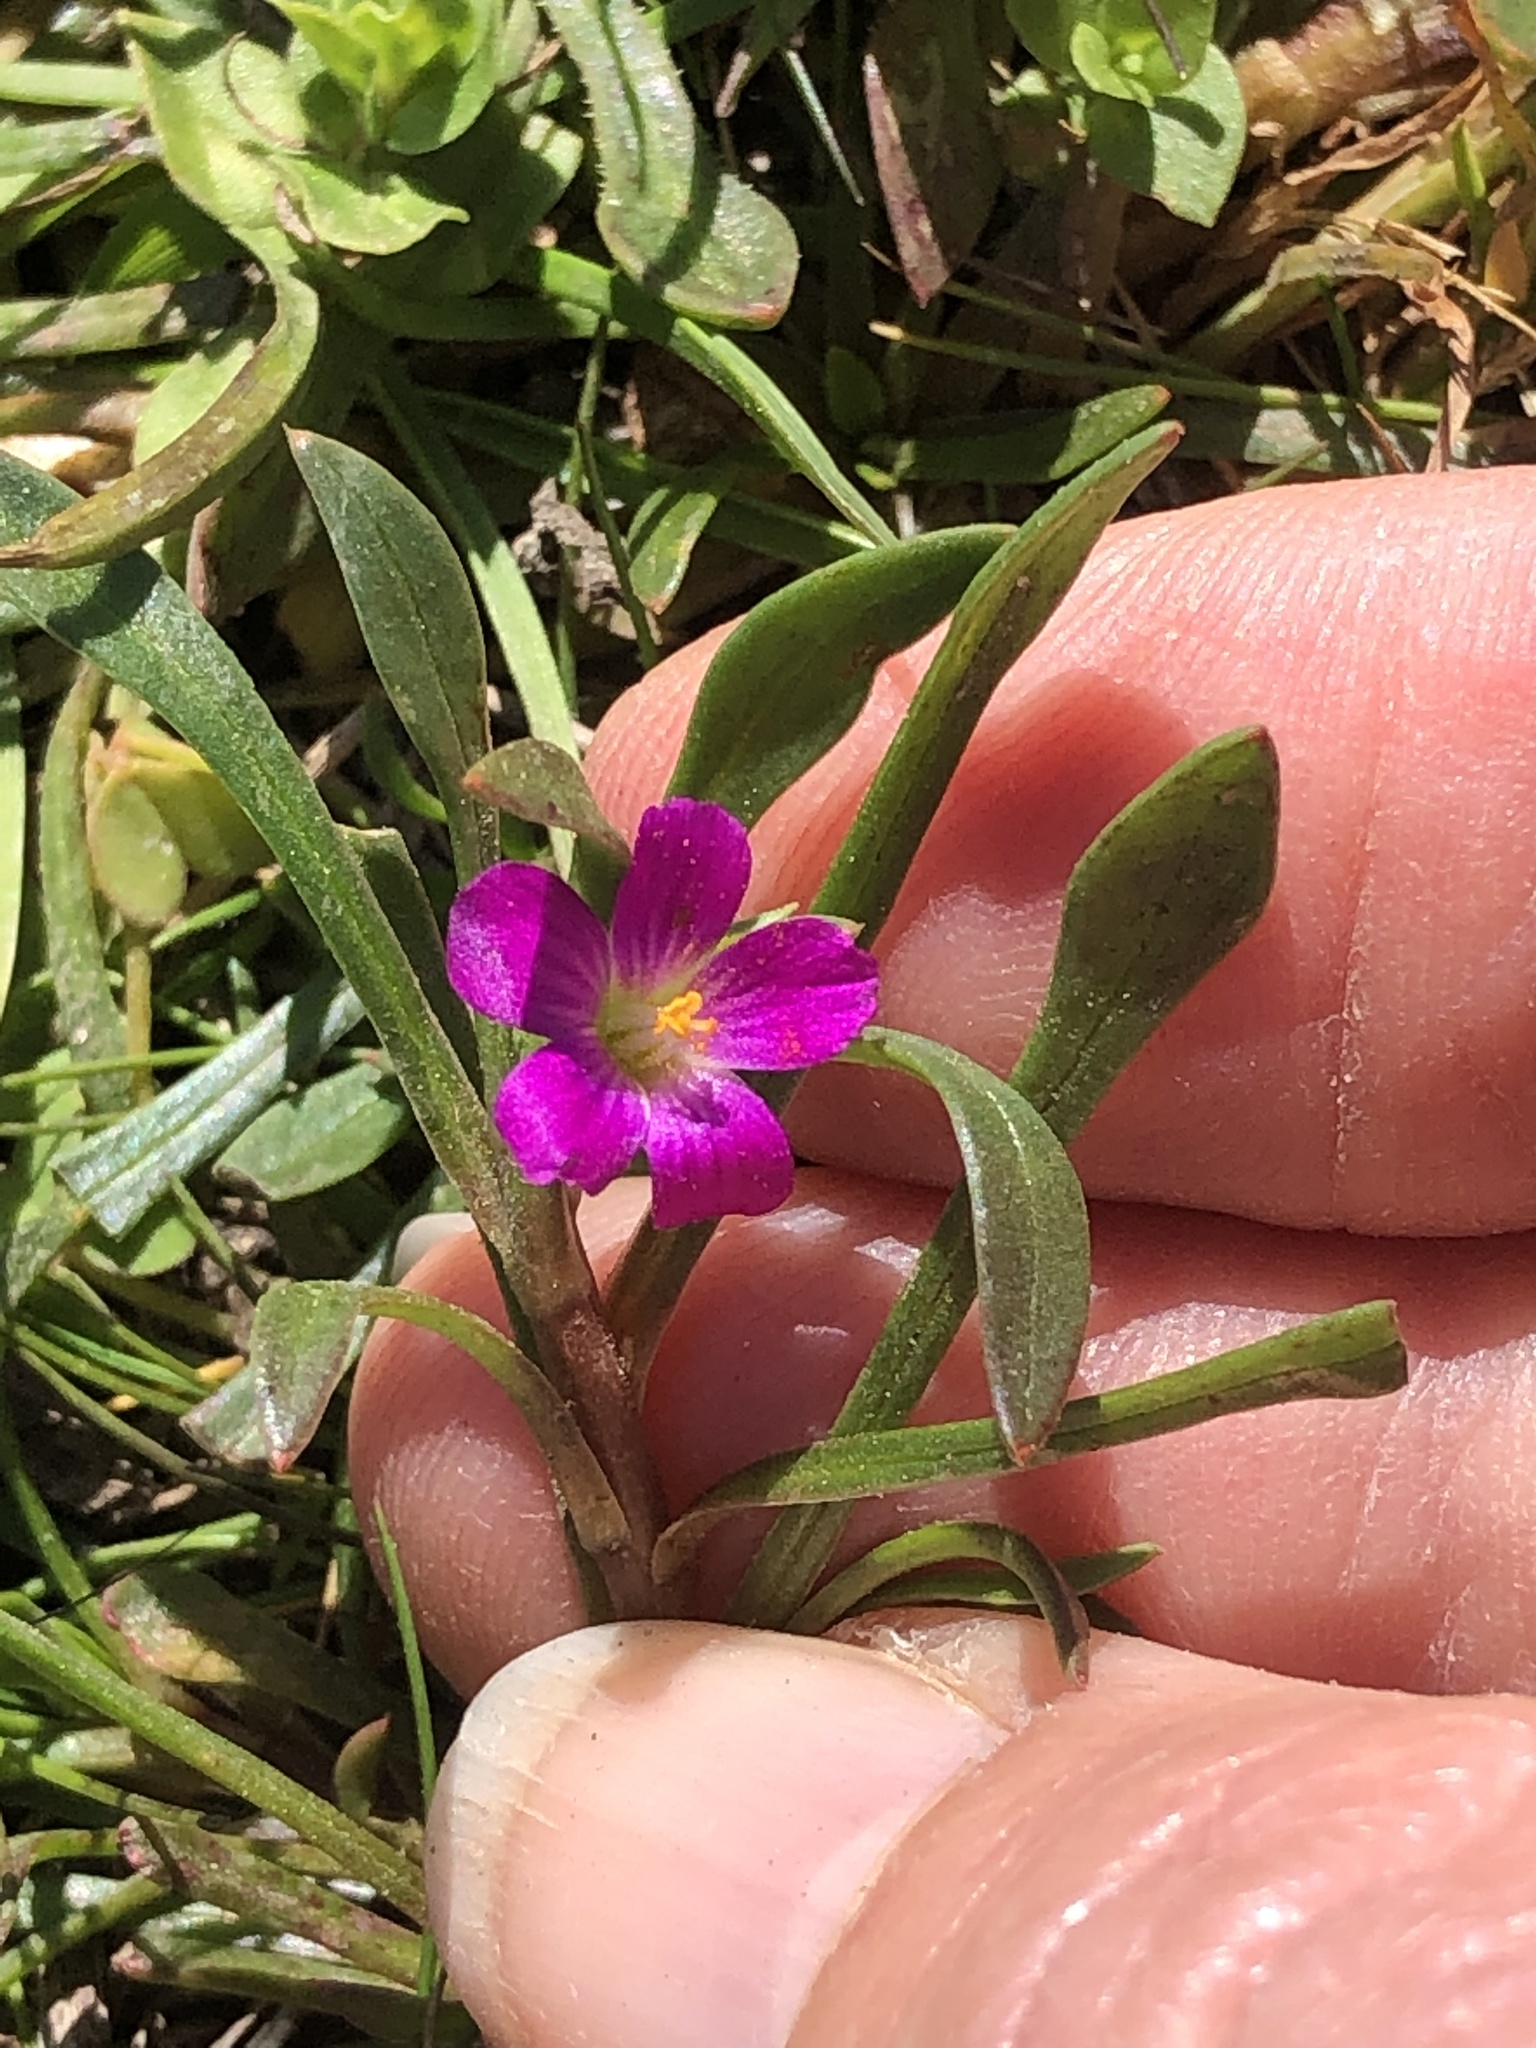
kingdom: Plantae
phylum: Tracheophyta
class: Magnoliopsida
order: Caryophyllales
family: Montiaceae
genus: Calandrinia
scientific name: Calandrinia menziesii
